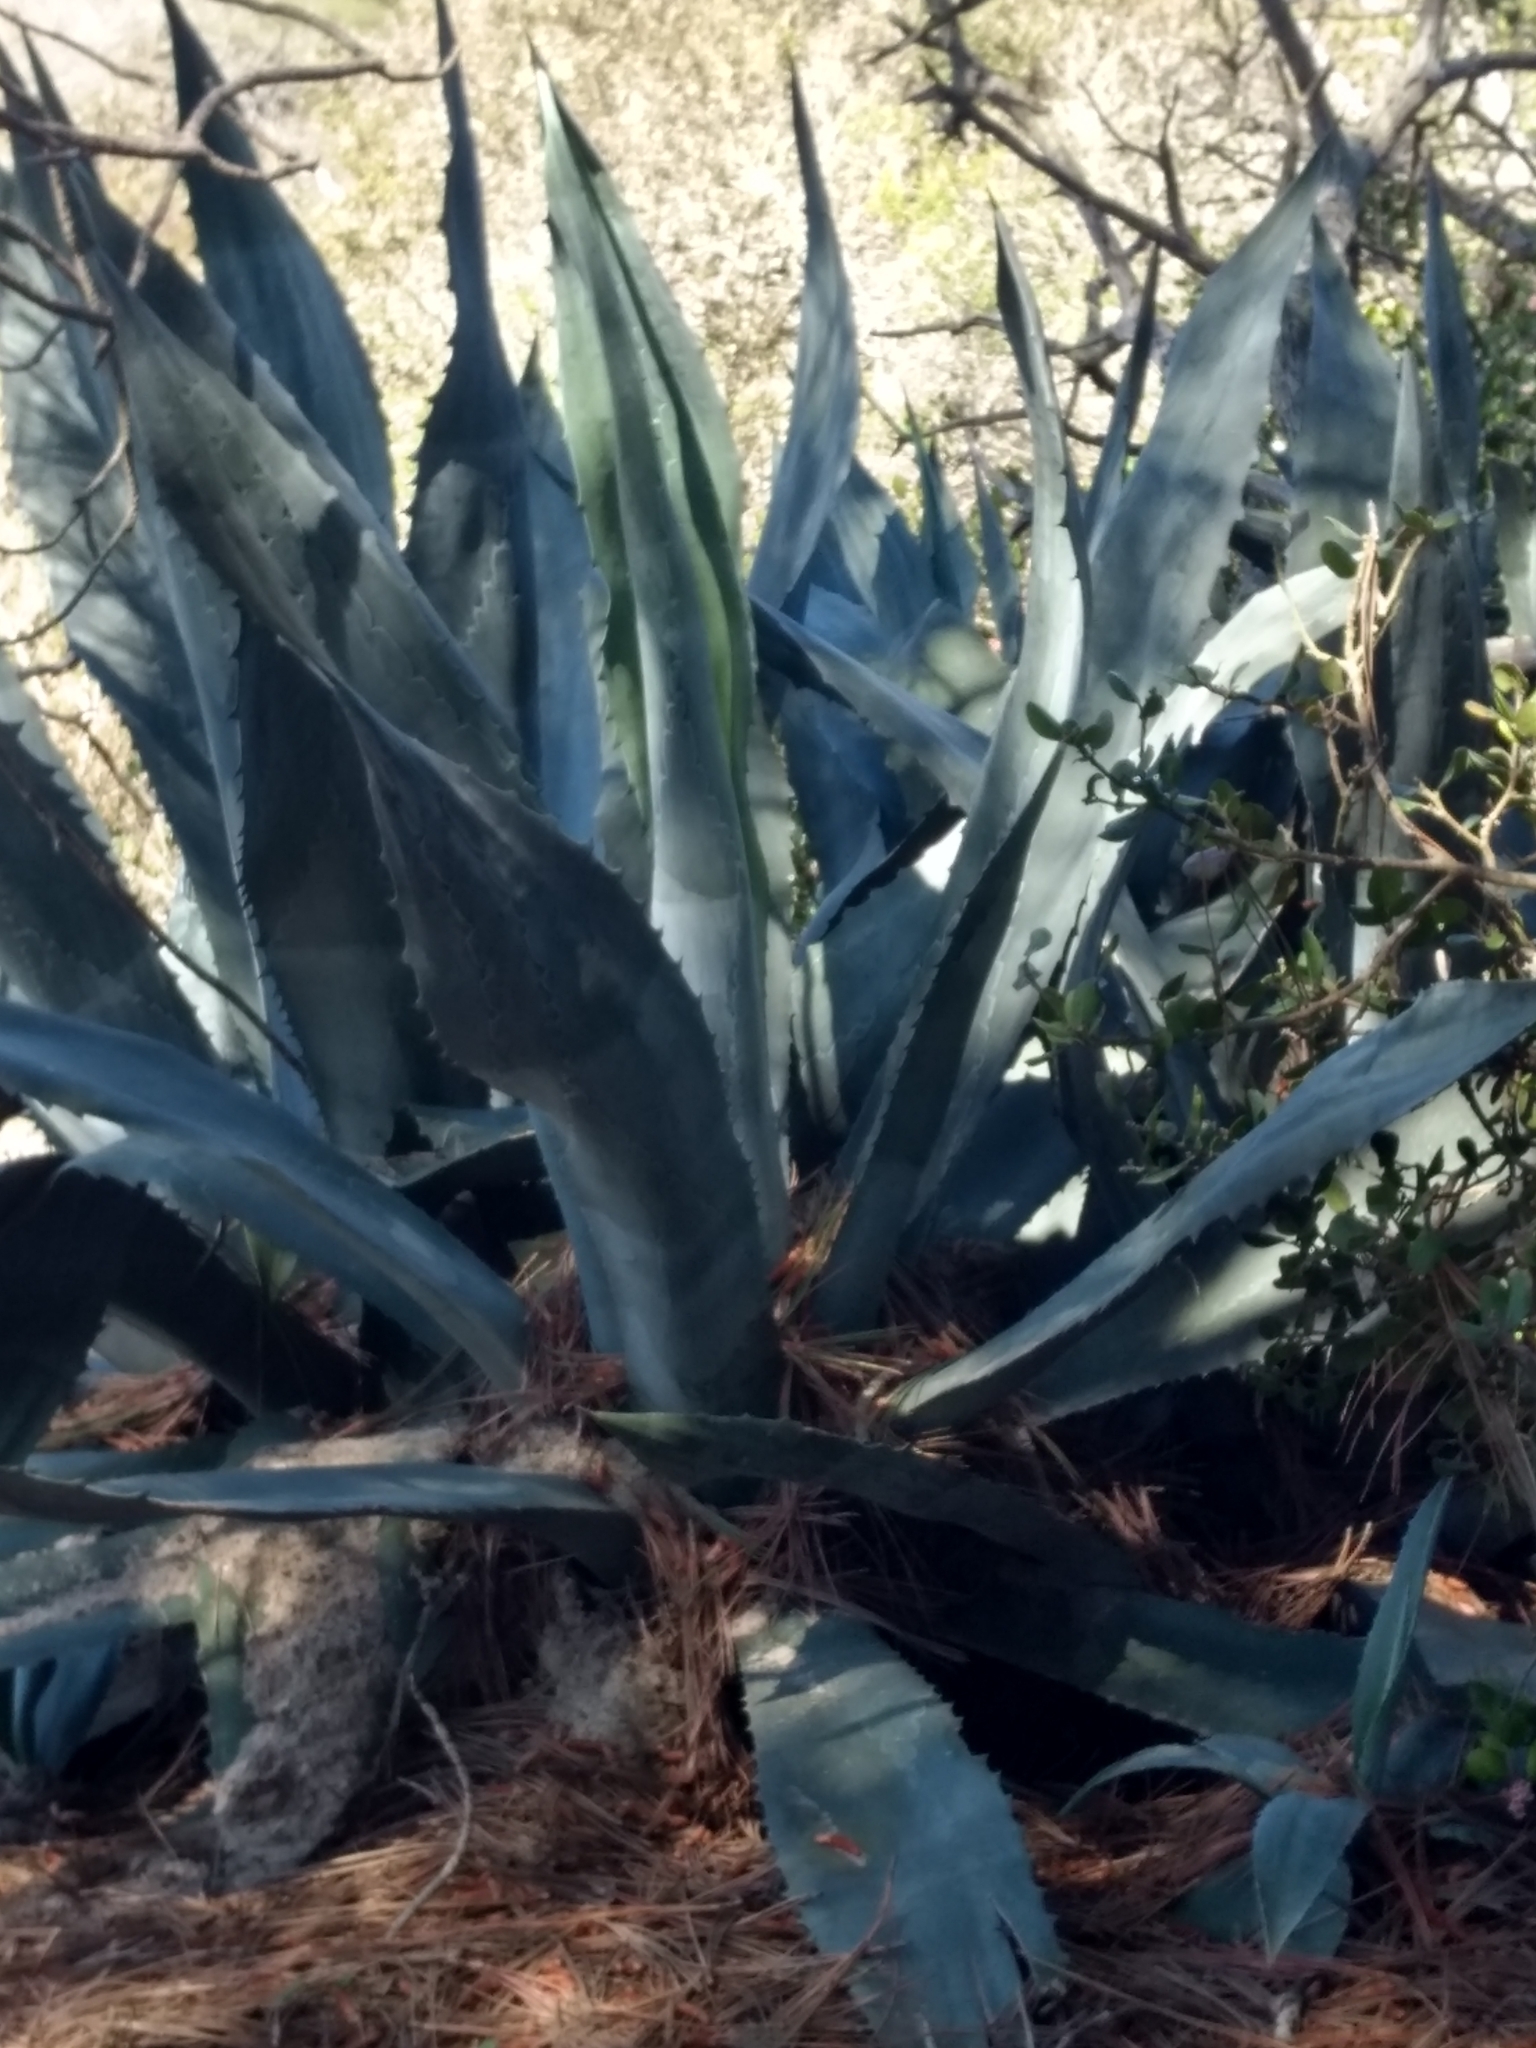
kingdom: Plantae
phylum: Tracheophyta
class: Liliopsida
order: Asparagales
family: Asparagaceae
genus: Agave
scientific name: Agave americana
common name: Centuryplant
